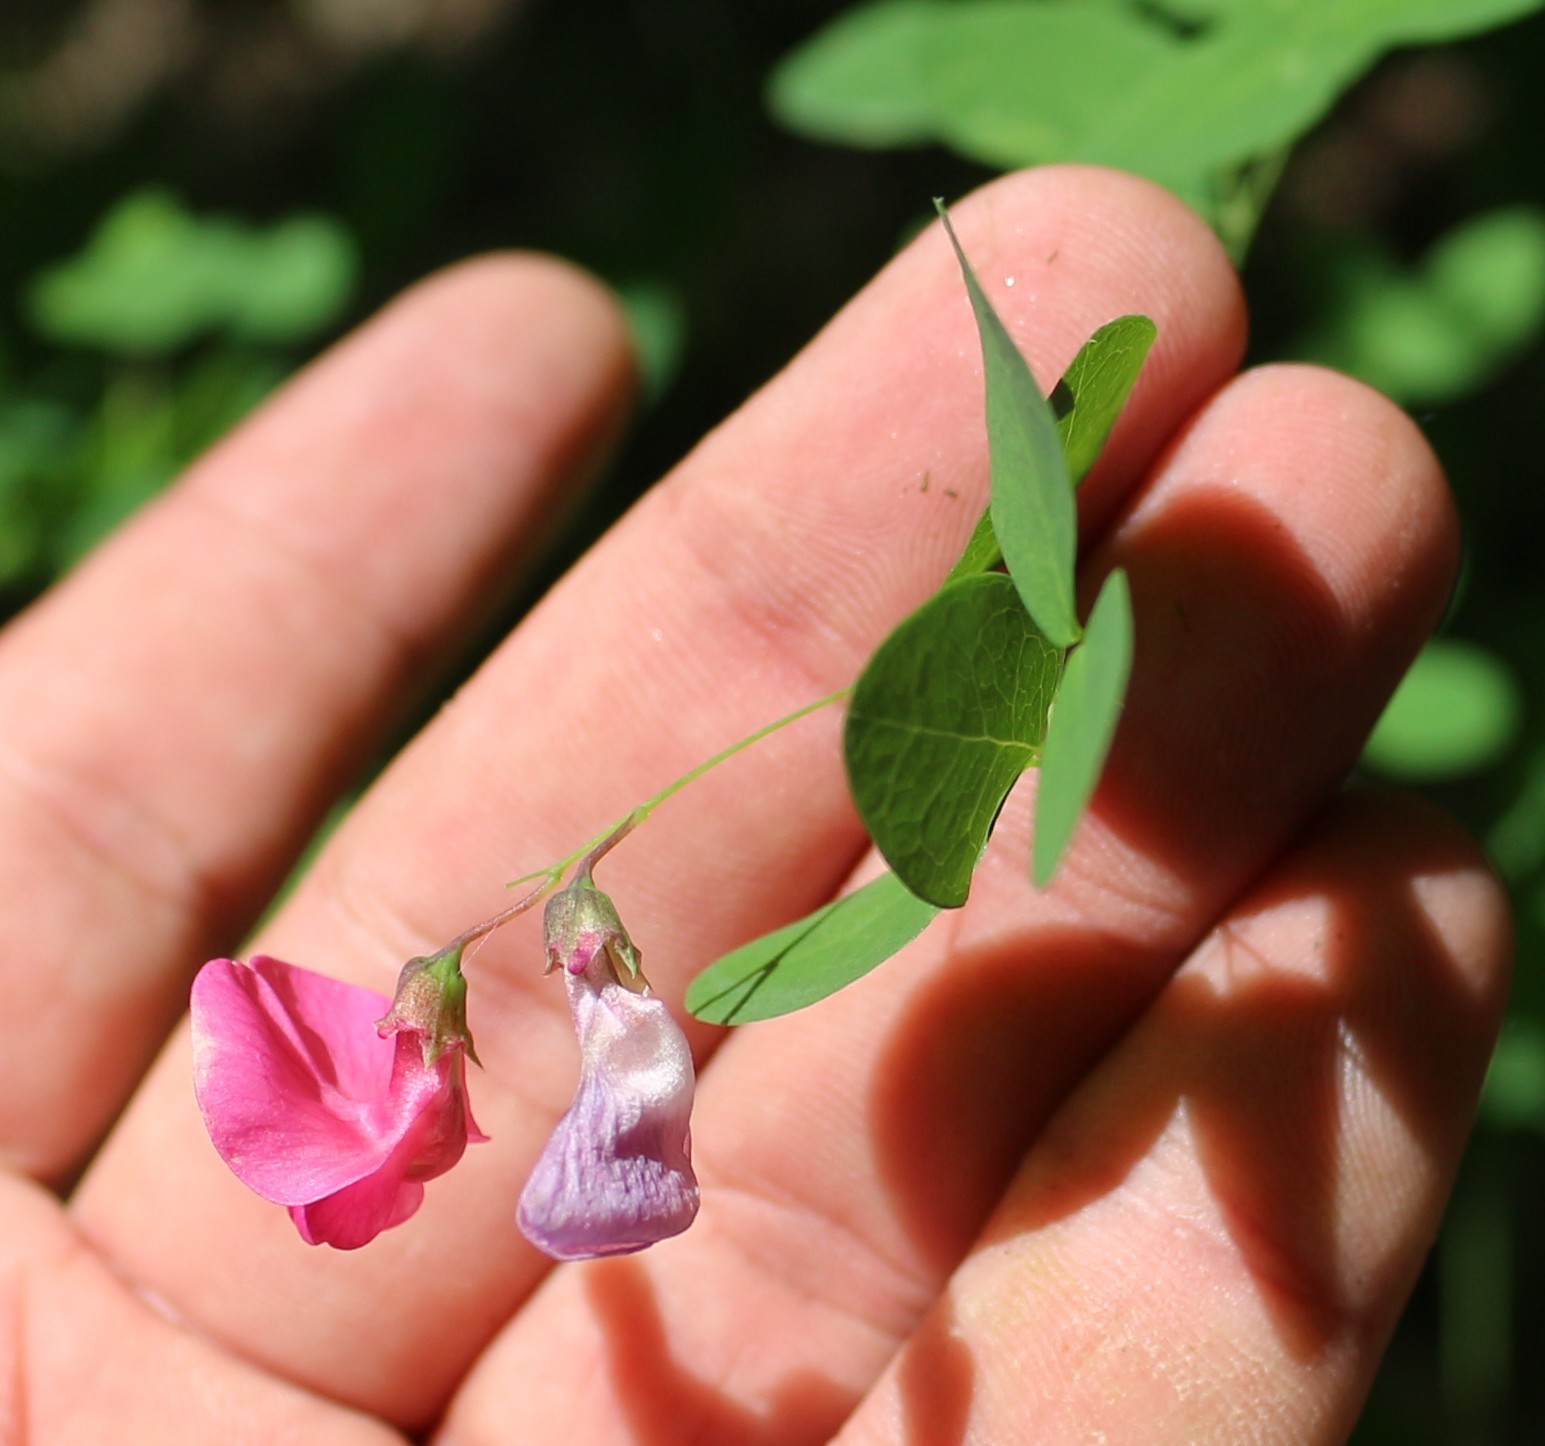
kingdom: Plantae
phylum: Tracheophyta
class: Magnoliopsida
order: Fabales
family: Fabaceae
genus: Lathyrus
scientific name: Lathyrus roseus
